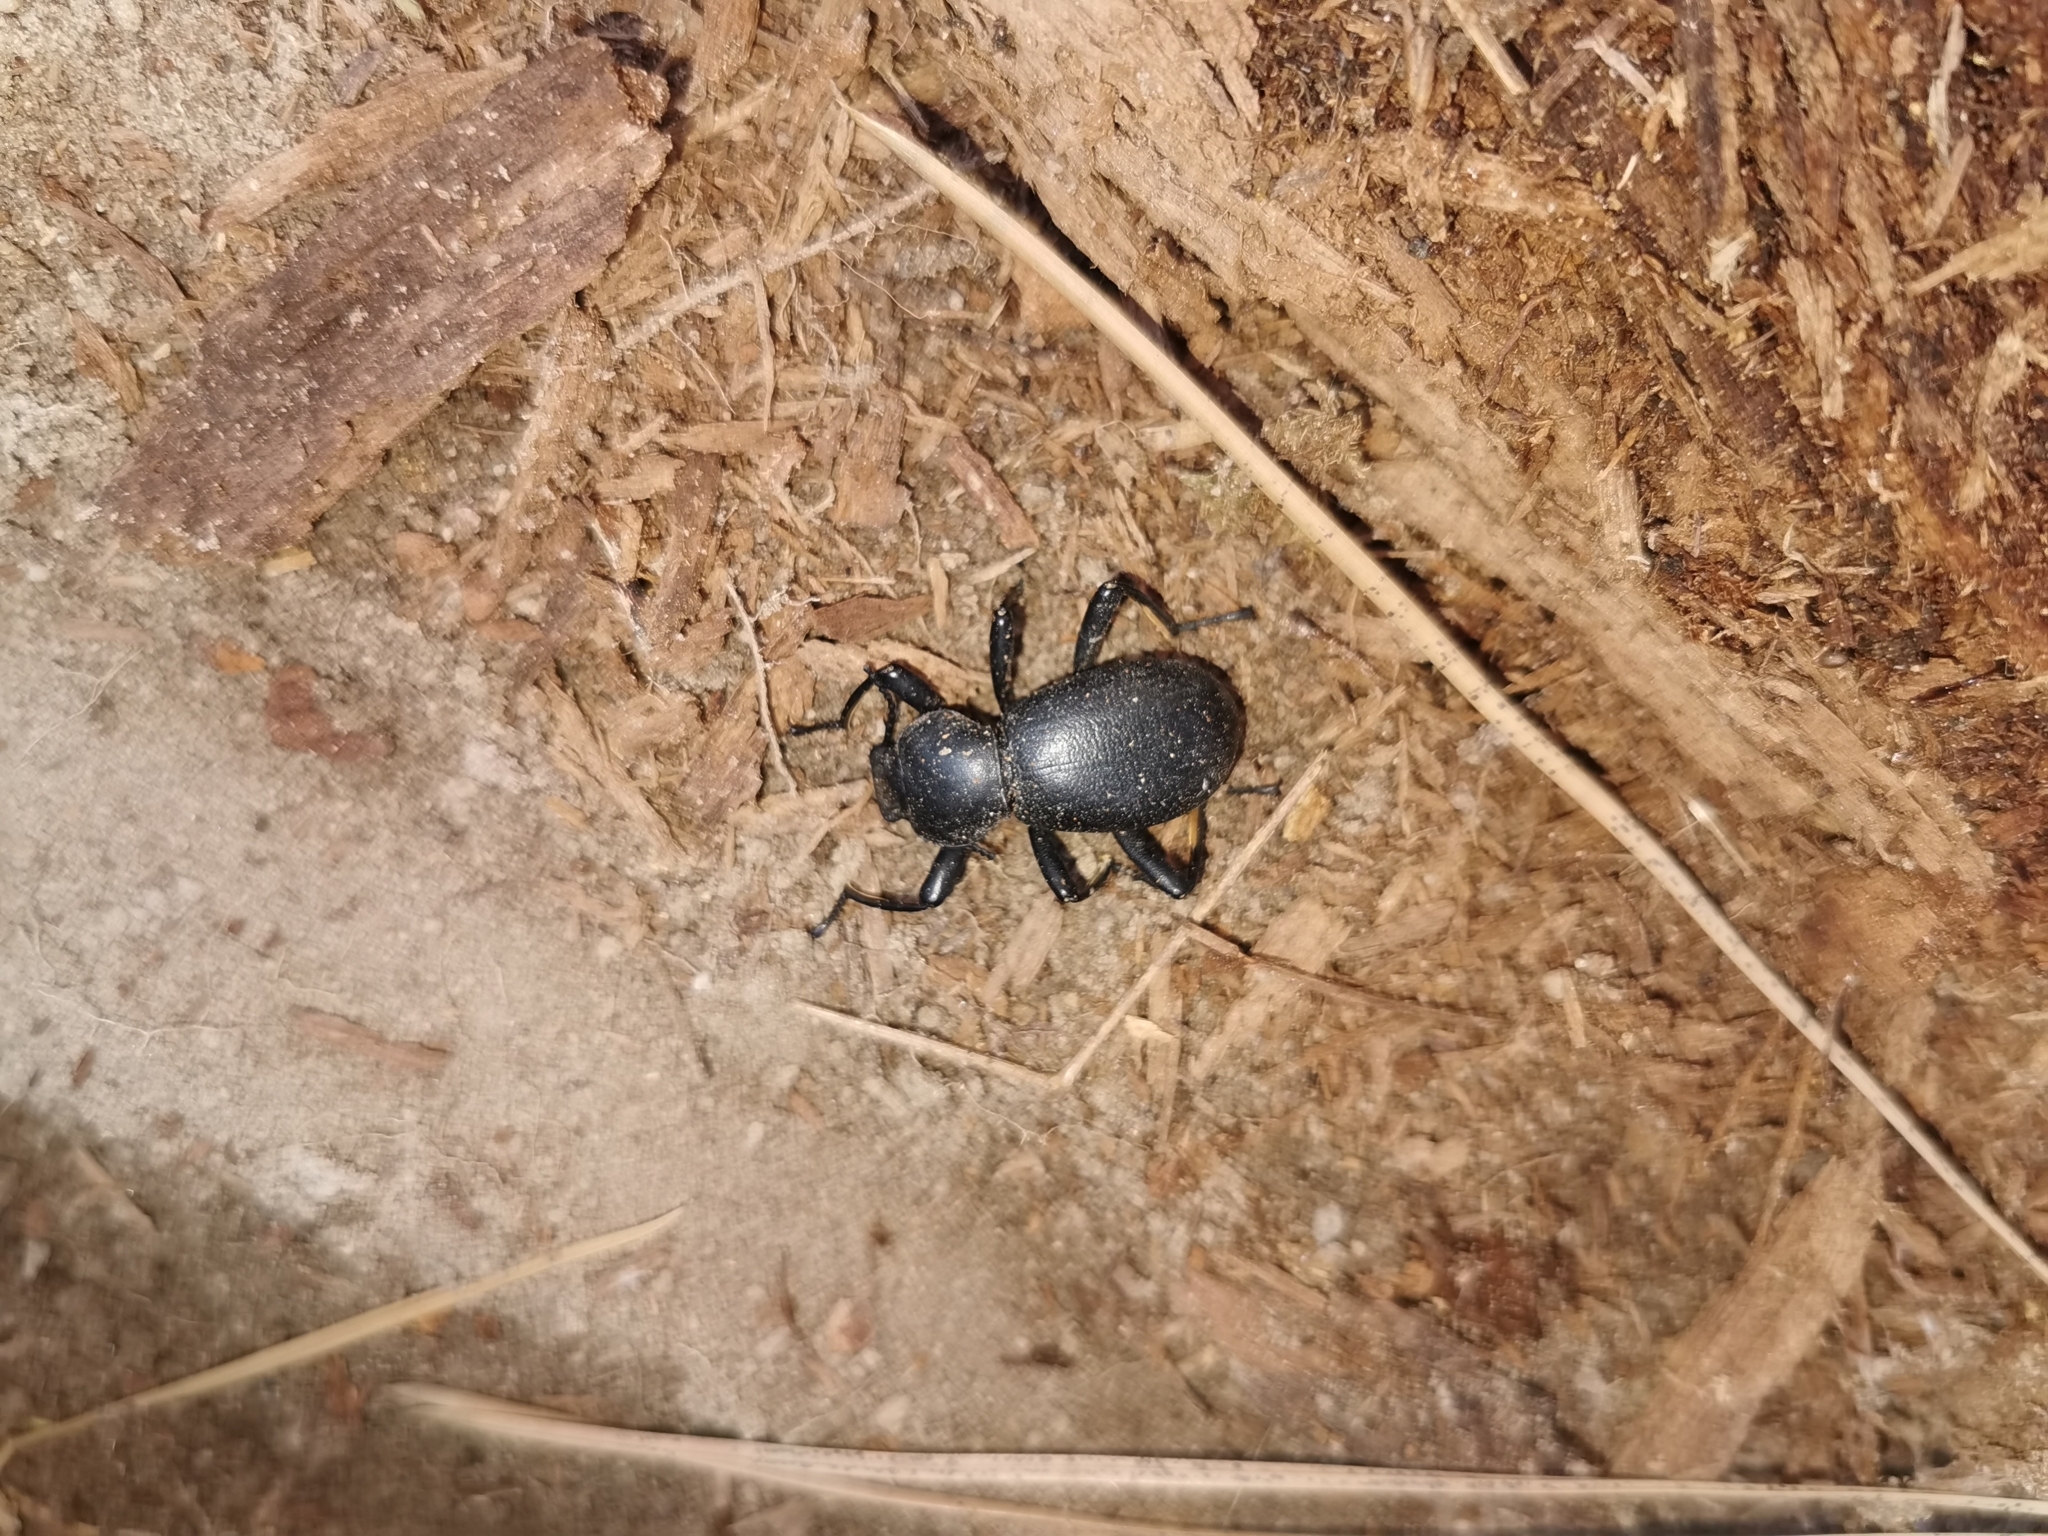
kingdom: Animalia
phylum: Arthropoda
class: Insecta
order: Coleoptera
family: Tenebrionidae
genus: Coelocnemis
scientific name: Coelocnemis dilaticollis
